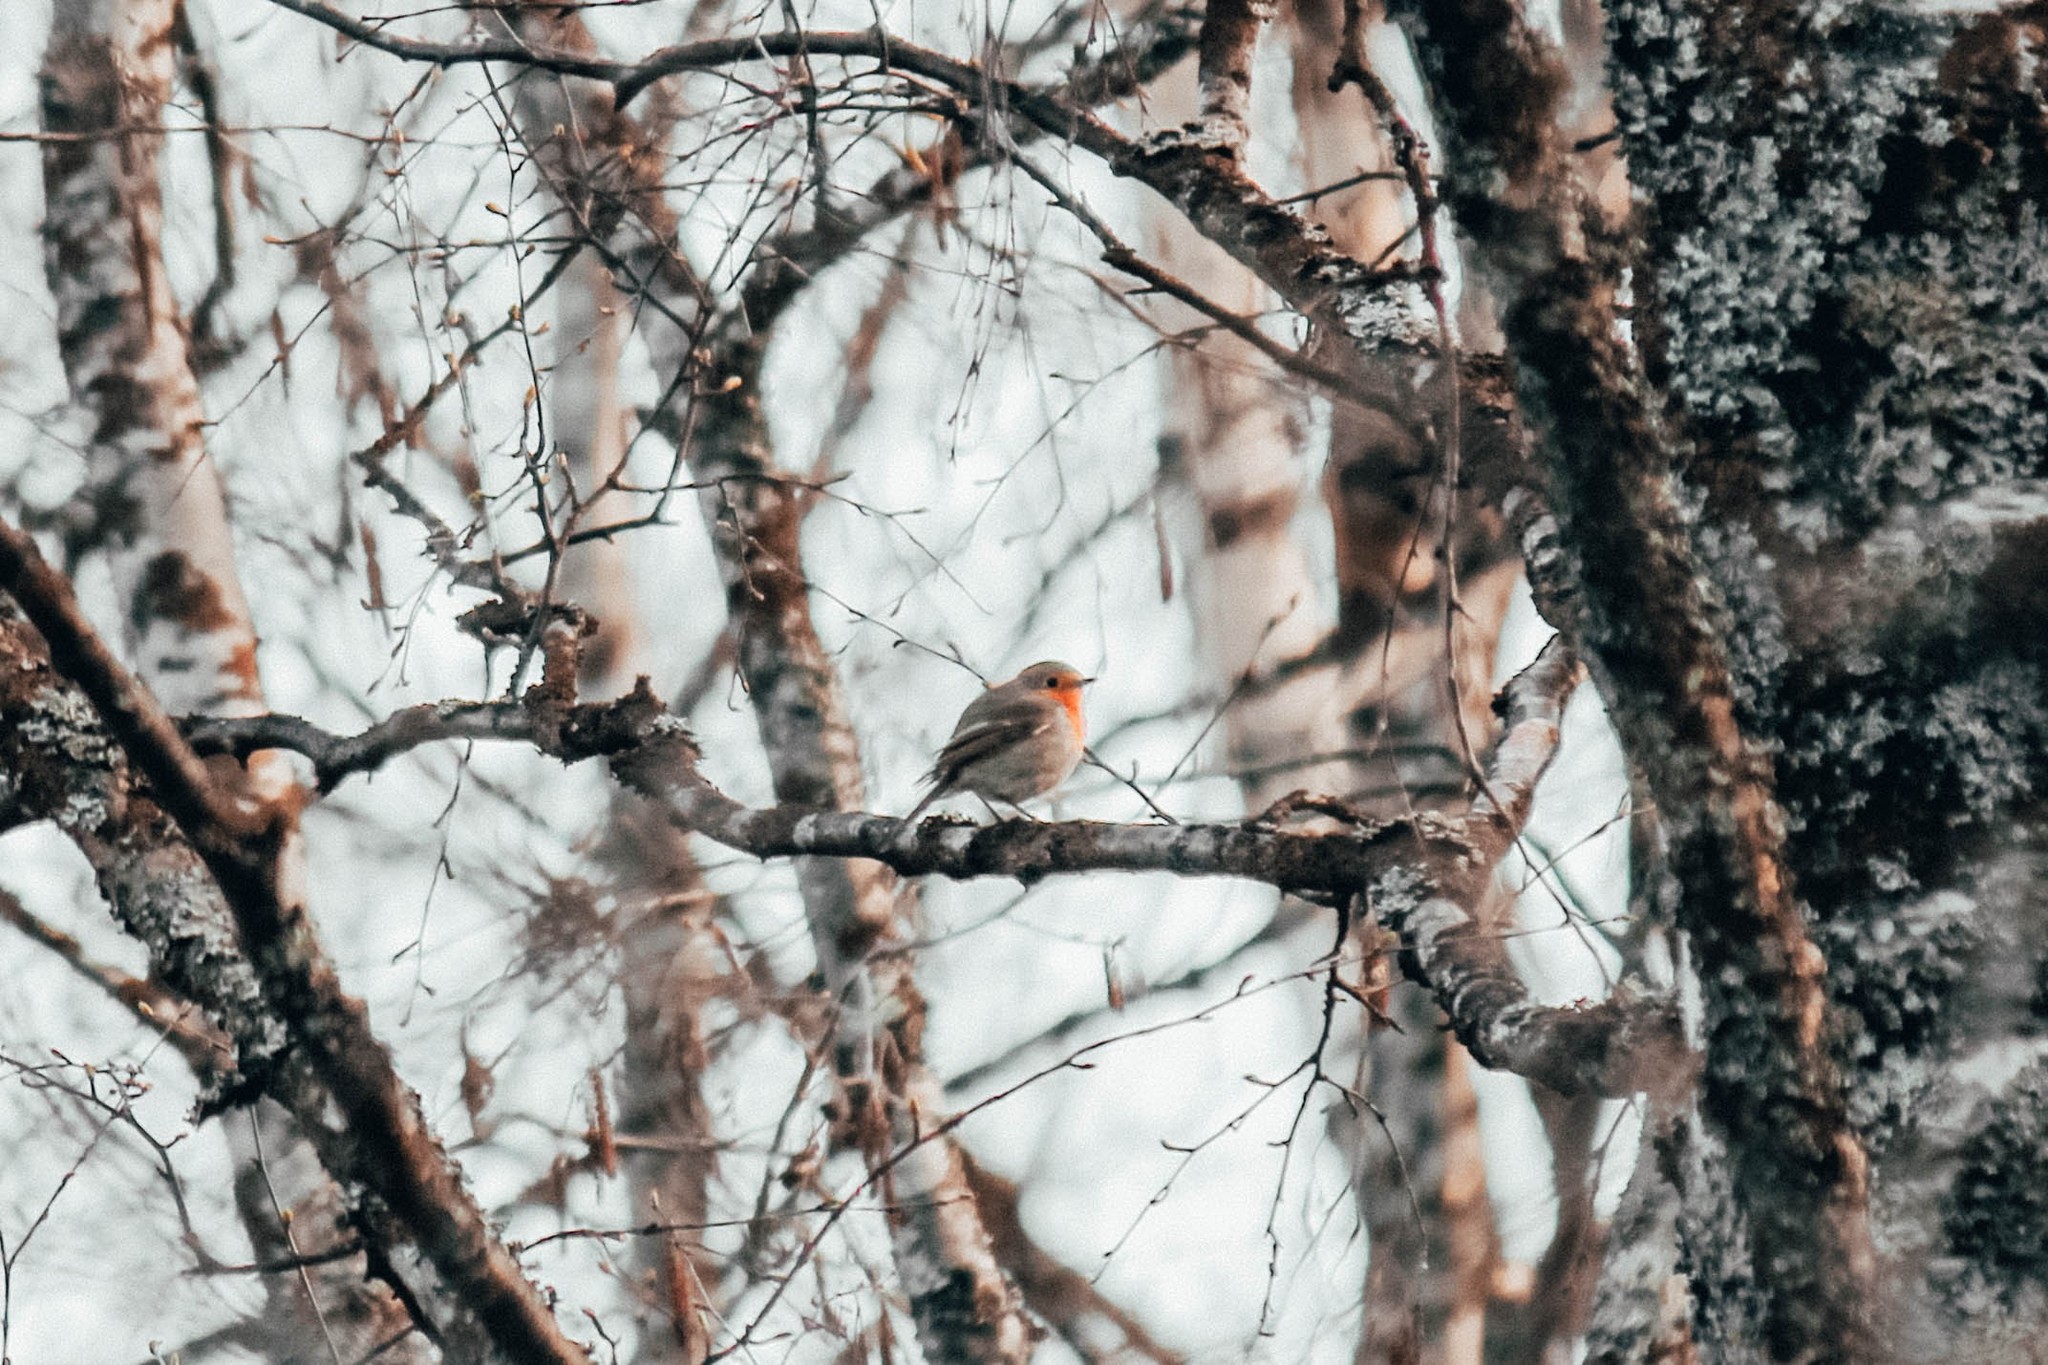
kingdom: Animalia
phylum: Chordata
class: Aves
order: Passeriformes
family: Muscicapidae
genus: Erithacus
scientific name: Erithacus rubecula
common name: European robin
